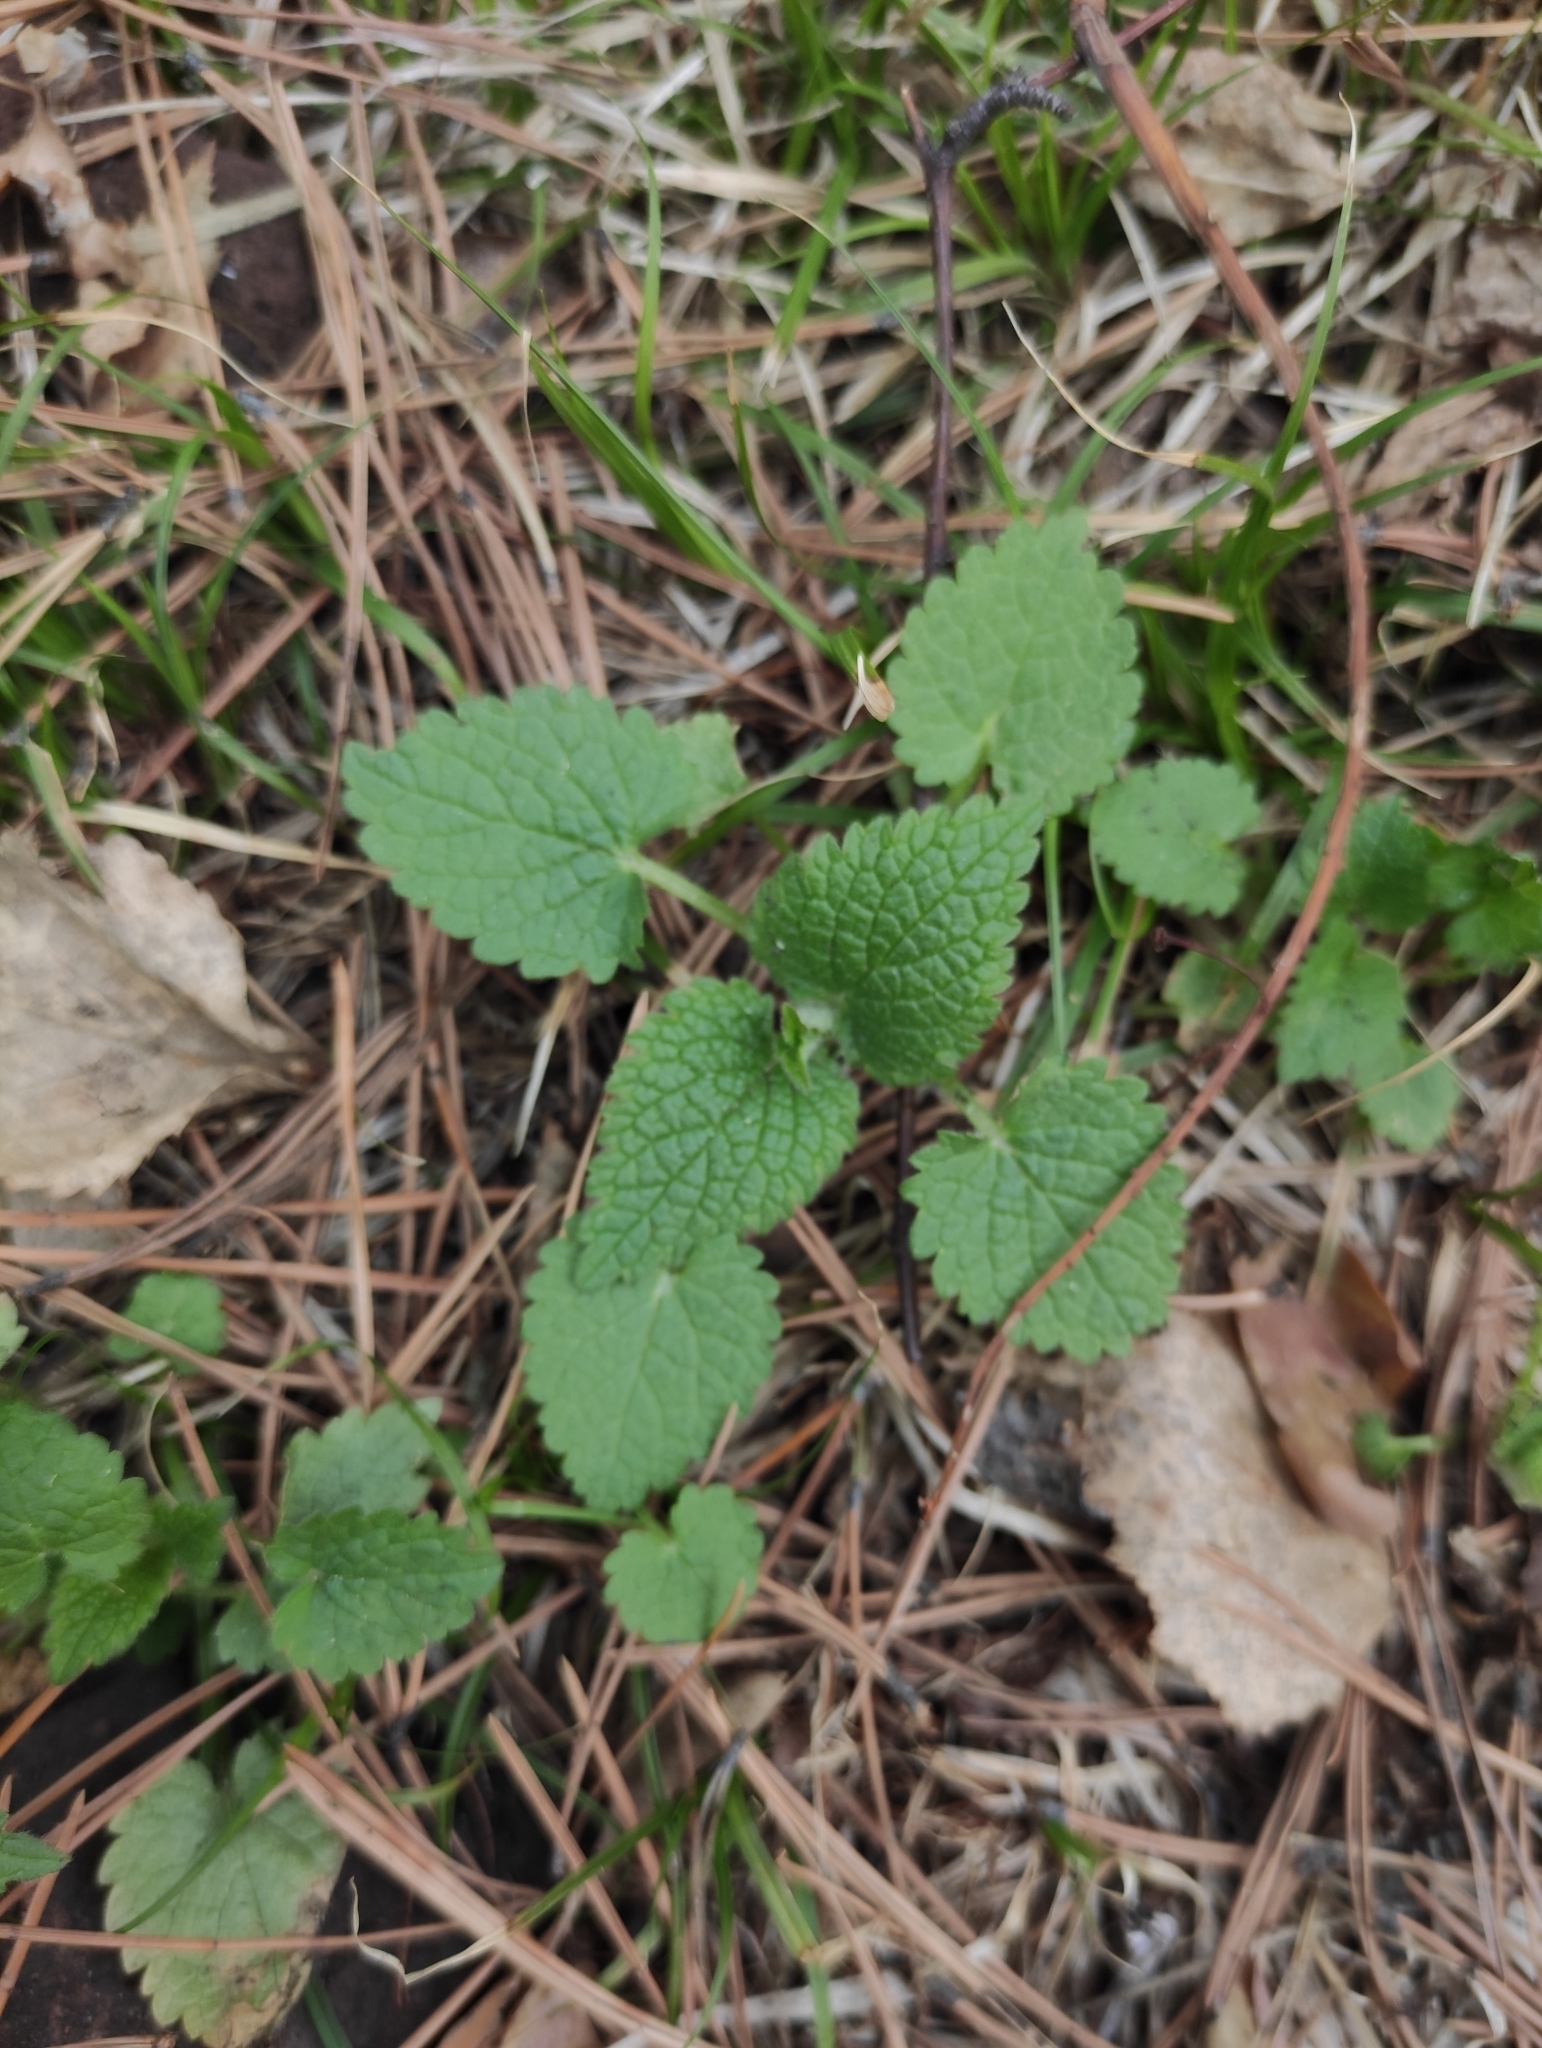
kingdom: Plantae
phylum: Tracheophyta
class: Magnoliopsida
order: Lamiales
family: Lamiaceae
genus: Lamium
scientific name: Lamium album
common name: White dead-nettle
